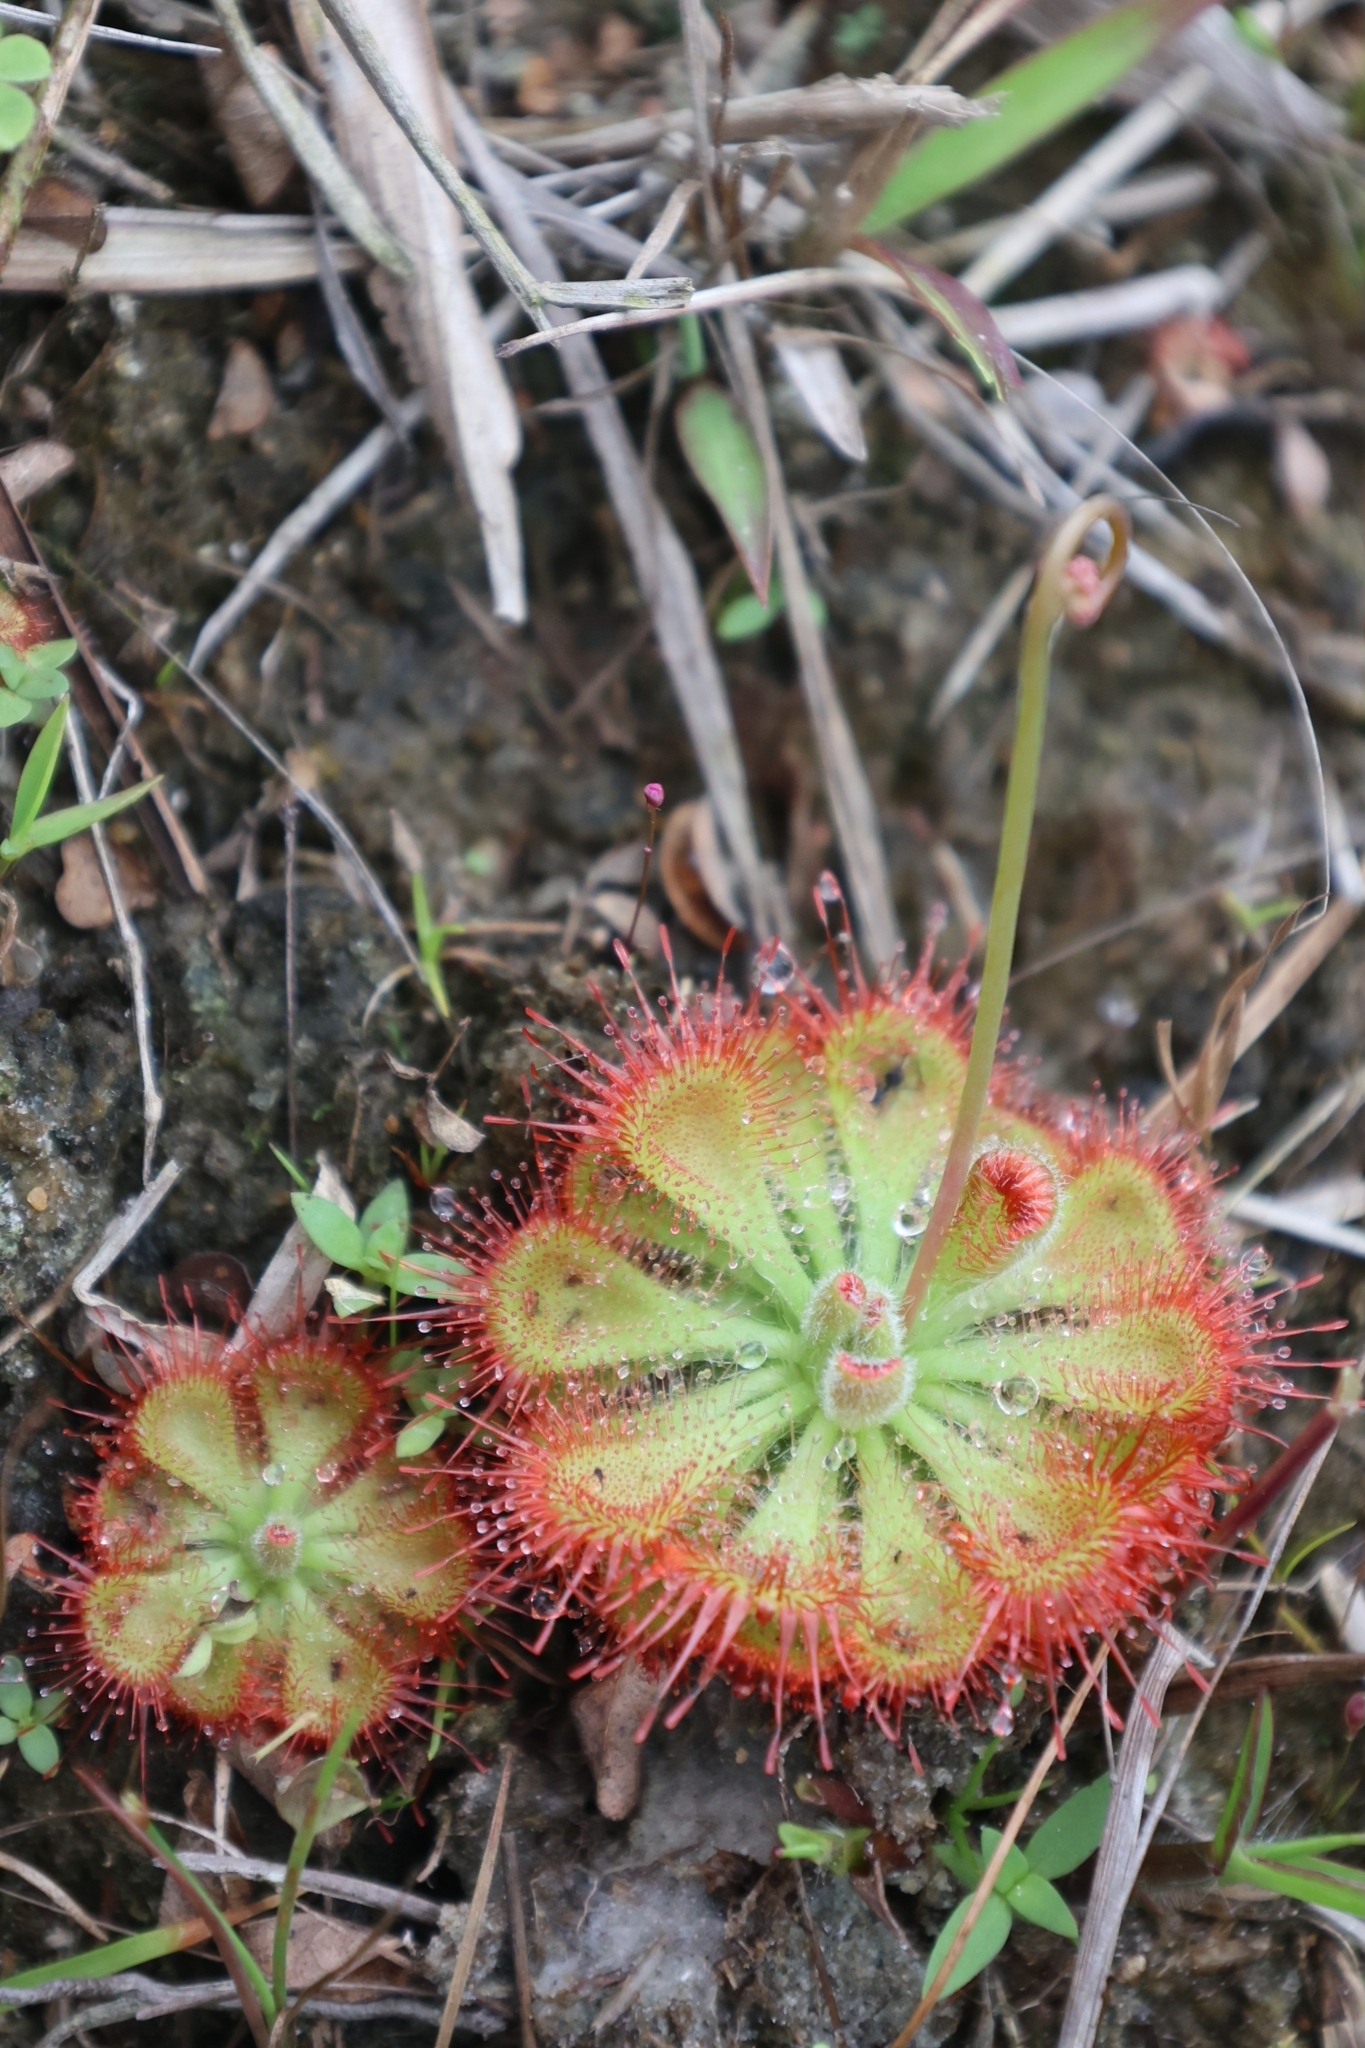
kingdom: Plantae
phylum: Tracheophyta
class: Magnoliopsida
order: Caryophyllales
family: Droseraceae
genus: Drosera
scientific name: Drosera spatulata
